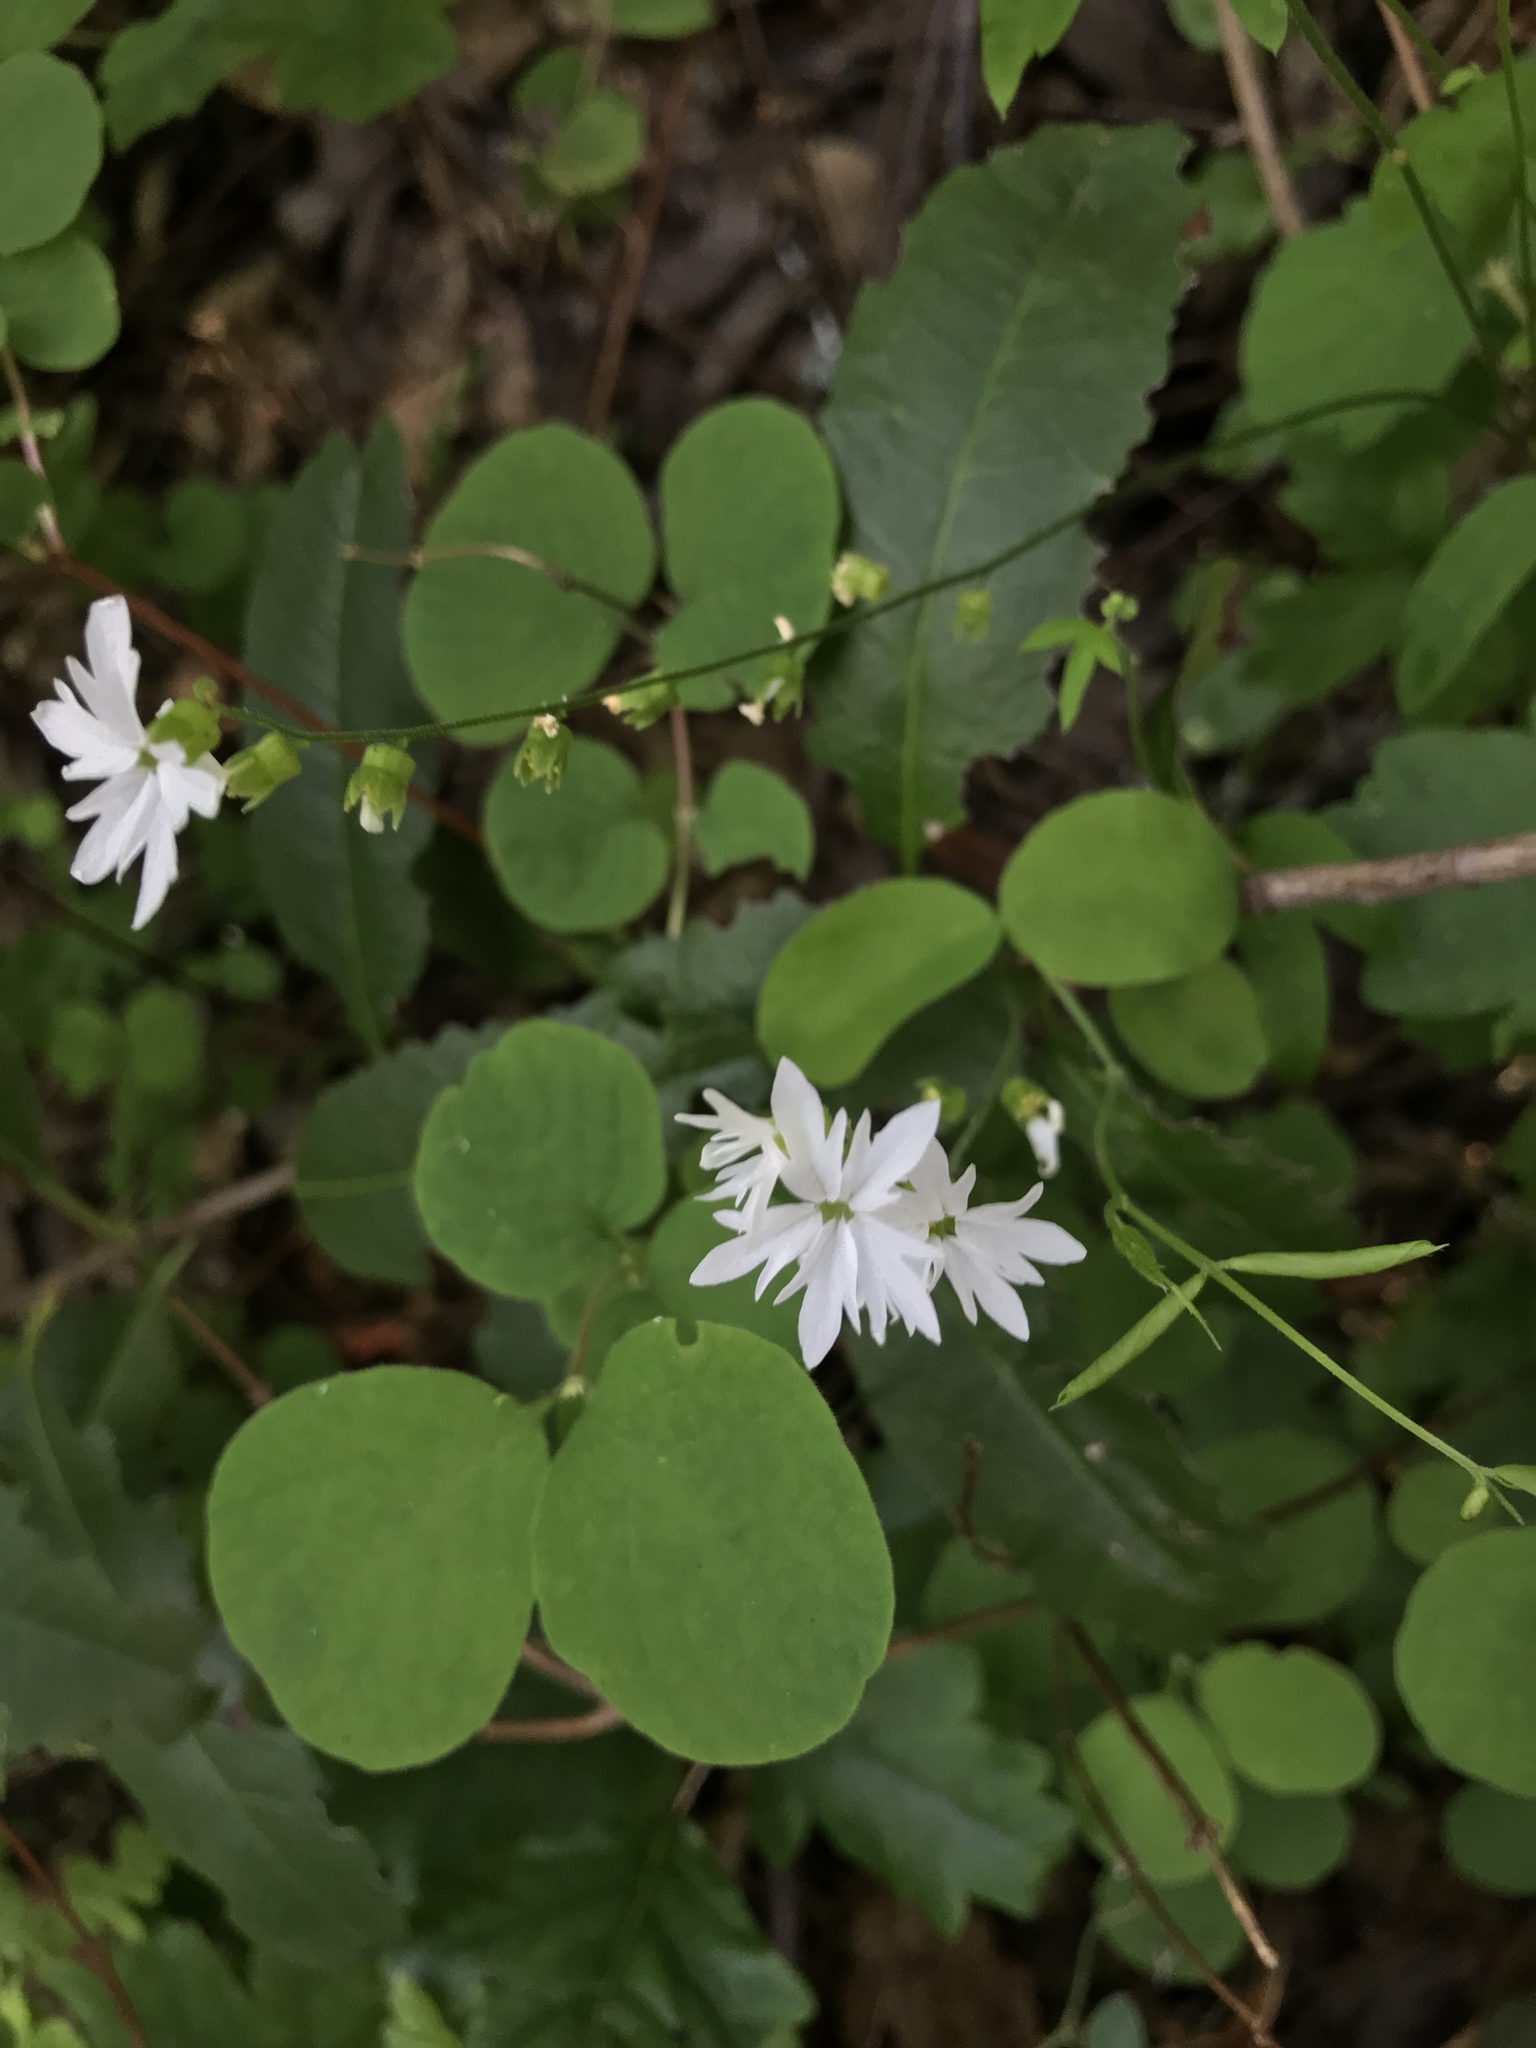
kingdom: Plantae
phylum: Tracheophyta
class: Magnoliopsida
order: Saxifragales
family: Saxifragaceae
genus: Lithophragma
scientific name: Lithophragma heterophyllum
